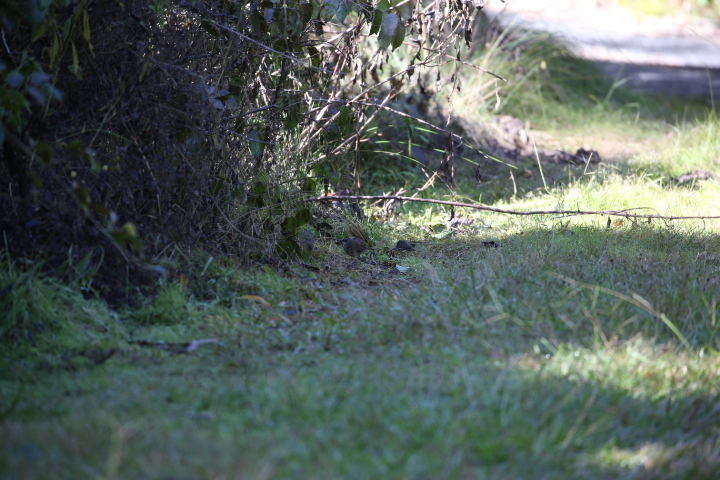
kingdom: Animalia
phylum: Chordata
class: Aves
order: Passeriformes
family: Acanthizidae
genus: Sericornis
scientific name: Sericornis frontalis
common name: White-browed scrubwren
